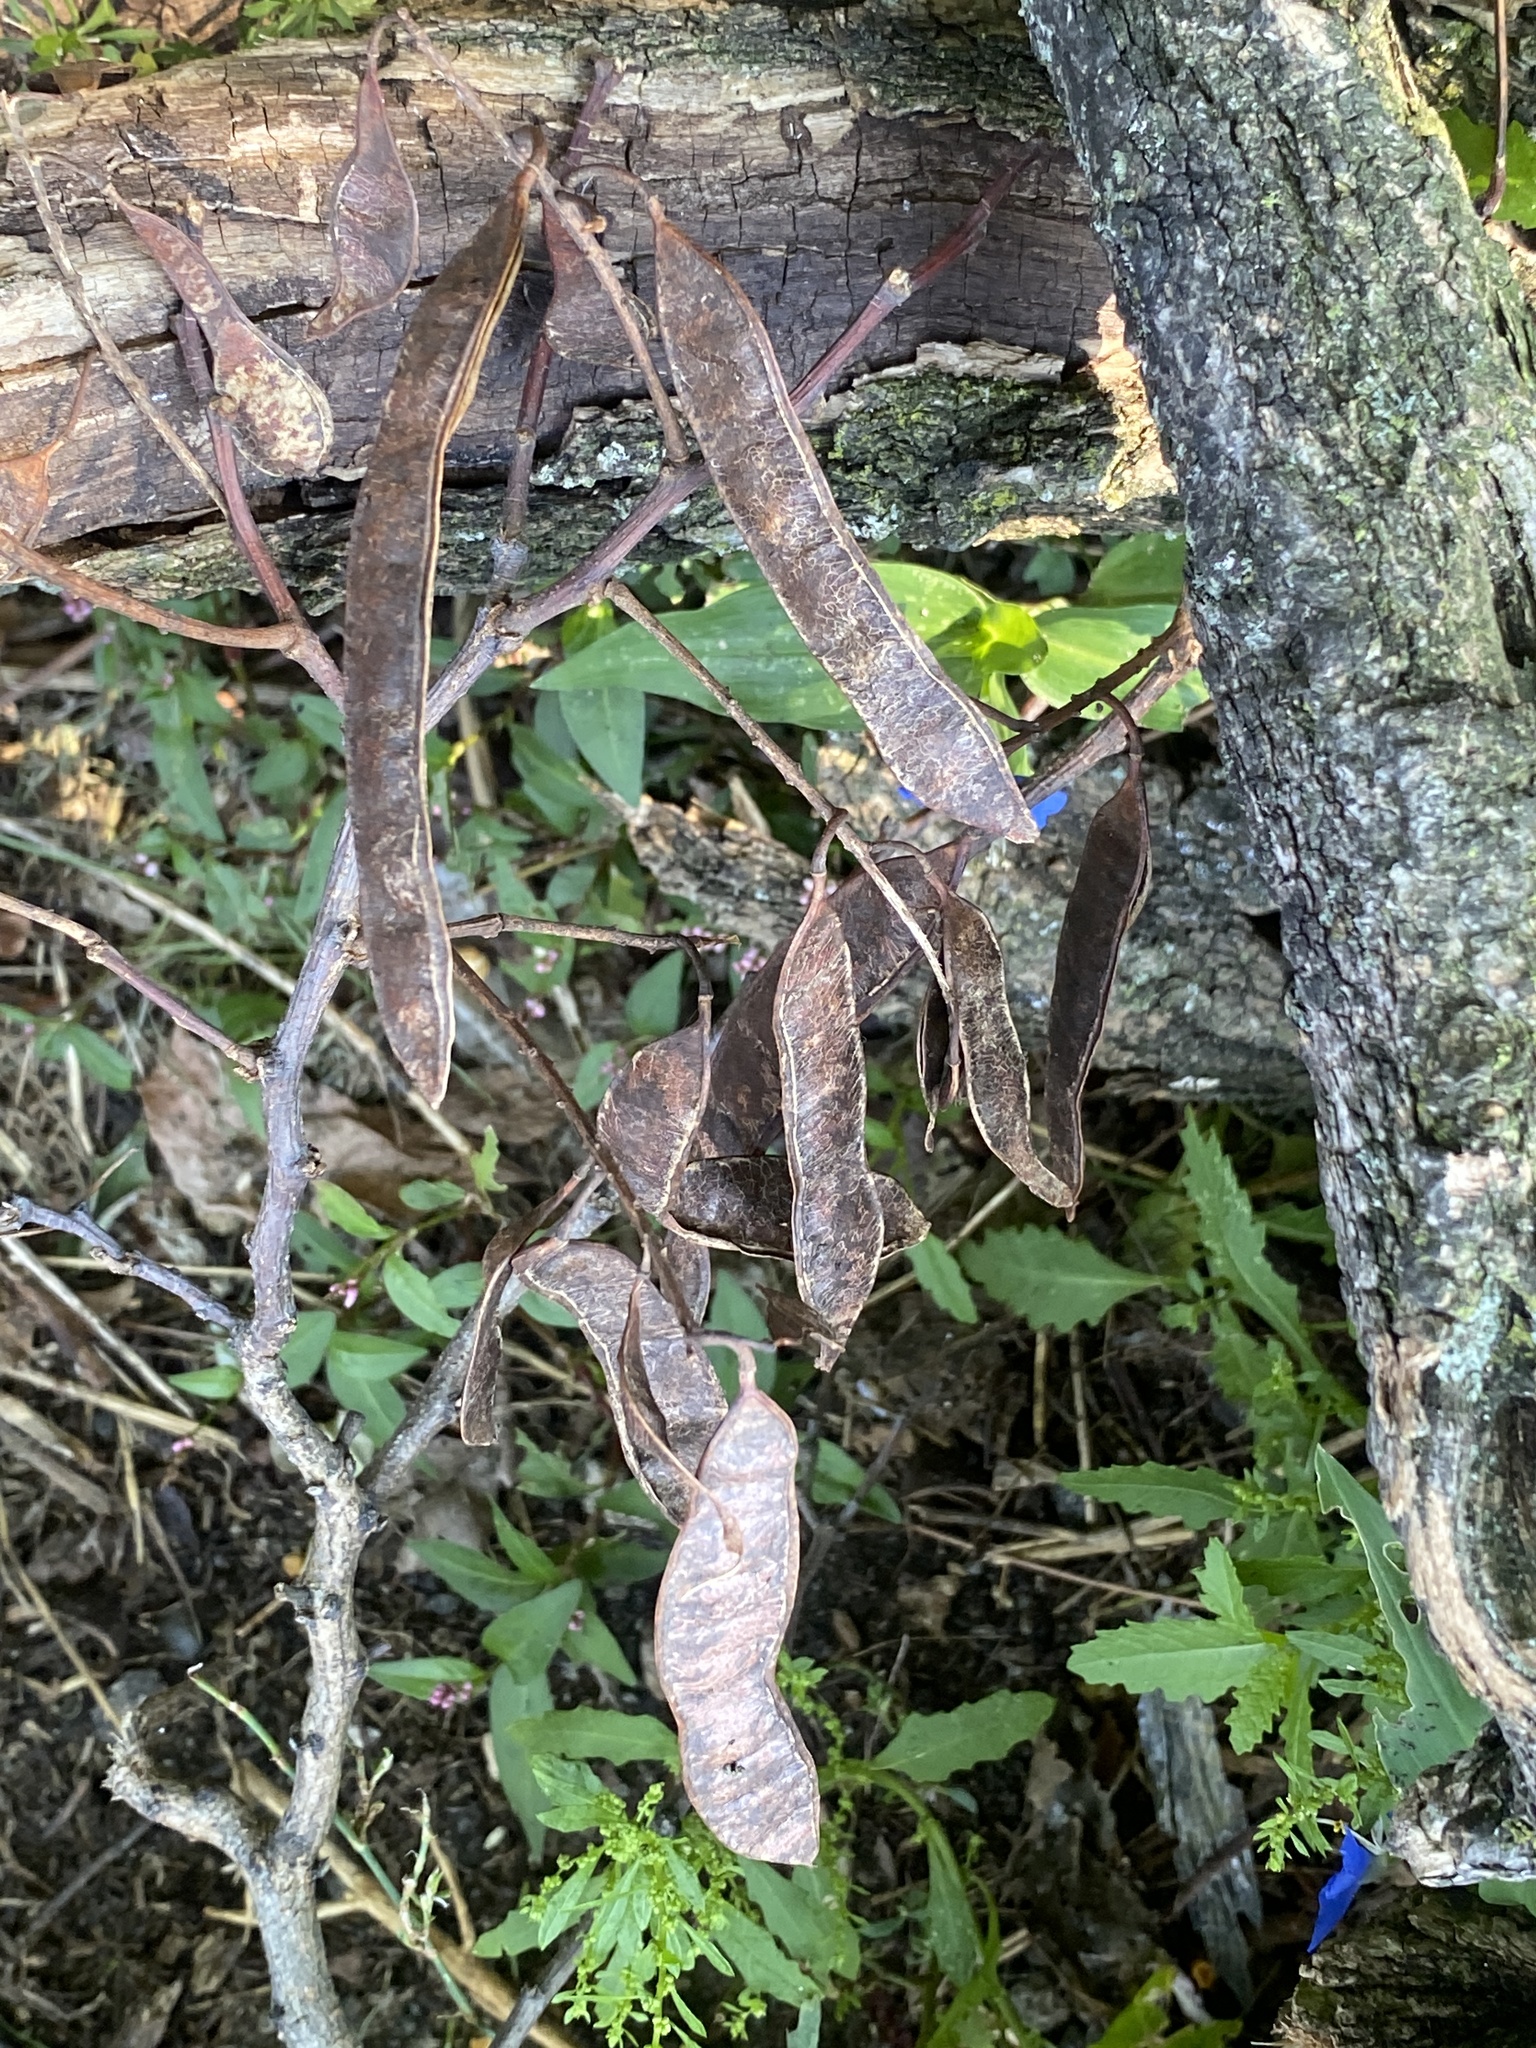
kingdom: Plantae
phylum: Tracheophyta
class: Magnoliopsida
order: Fabales
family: Fabaceae
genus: Robinia
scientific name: Robinia pseudoacacia
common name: Black locust
